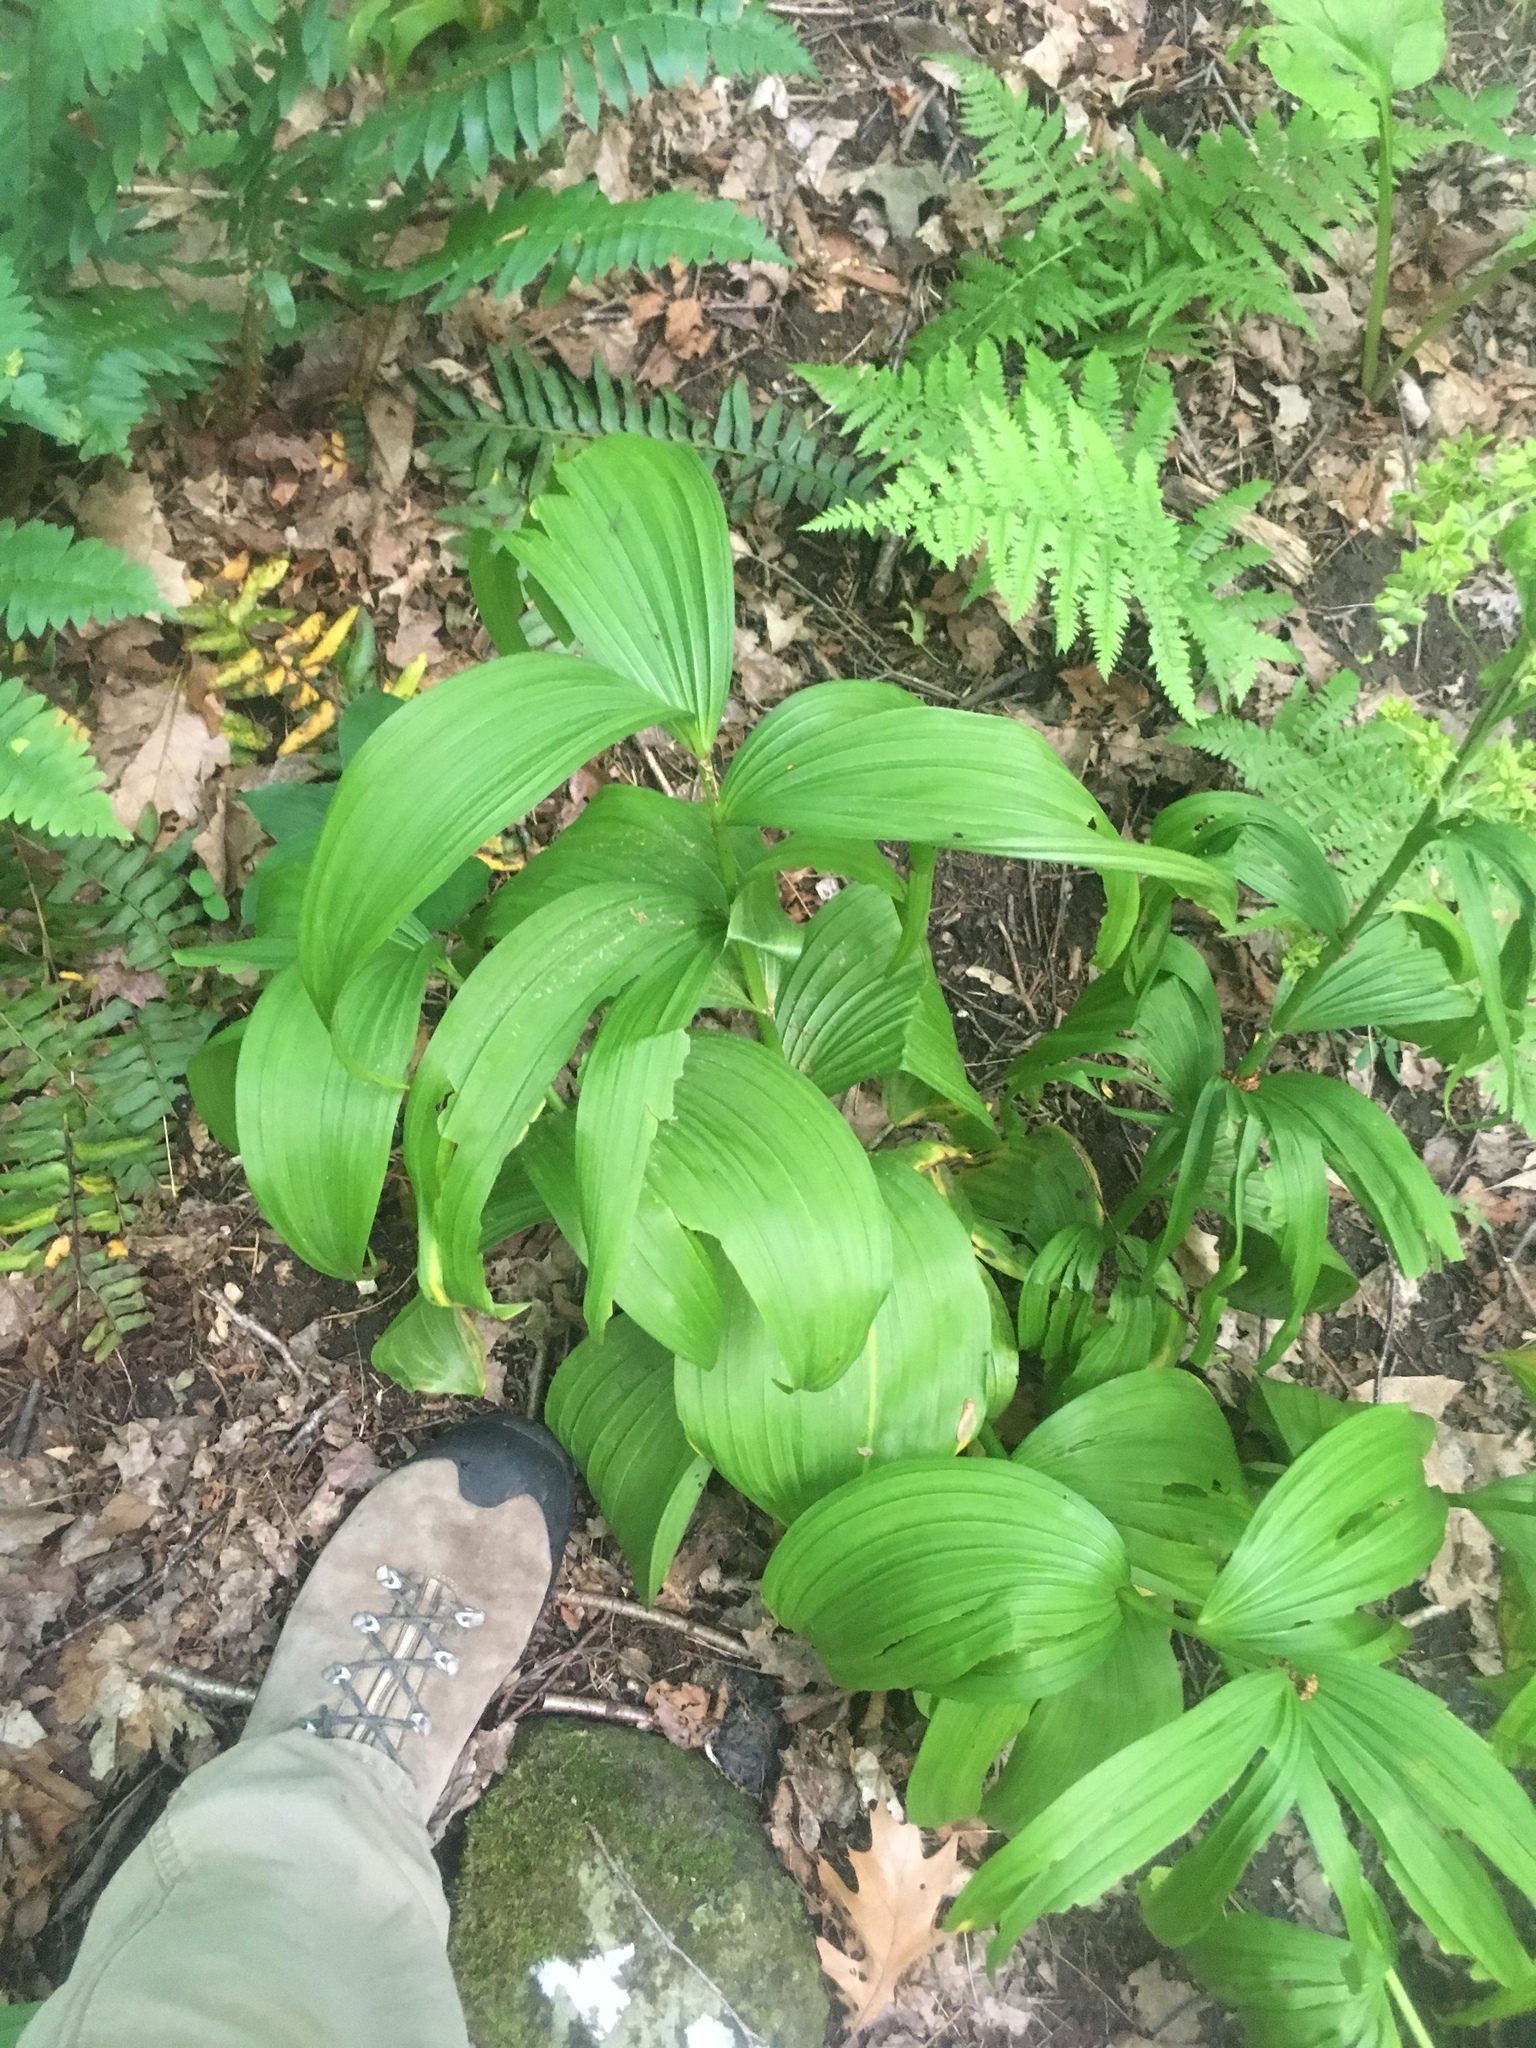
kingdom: Plantae
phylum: Tracheophyta
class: Liliopsida
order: Liliales
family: Melanthiaceae
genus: Veratrum
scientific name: Veratrum viride
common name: American false hellebore
